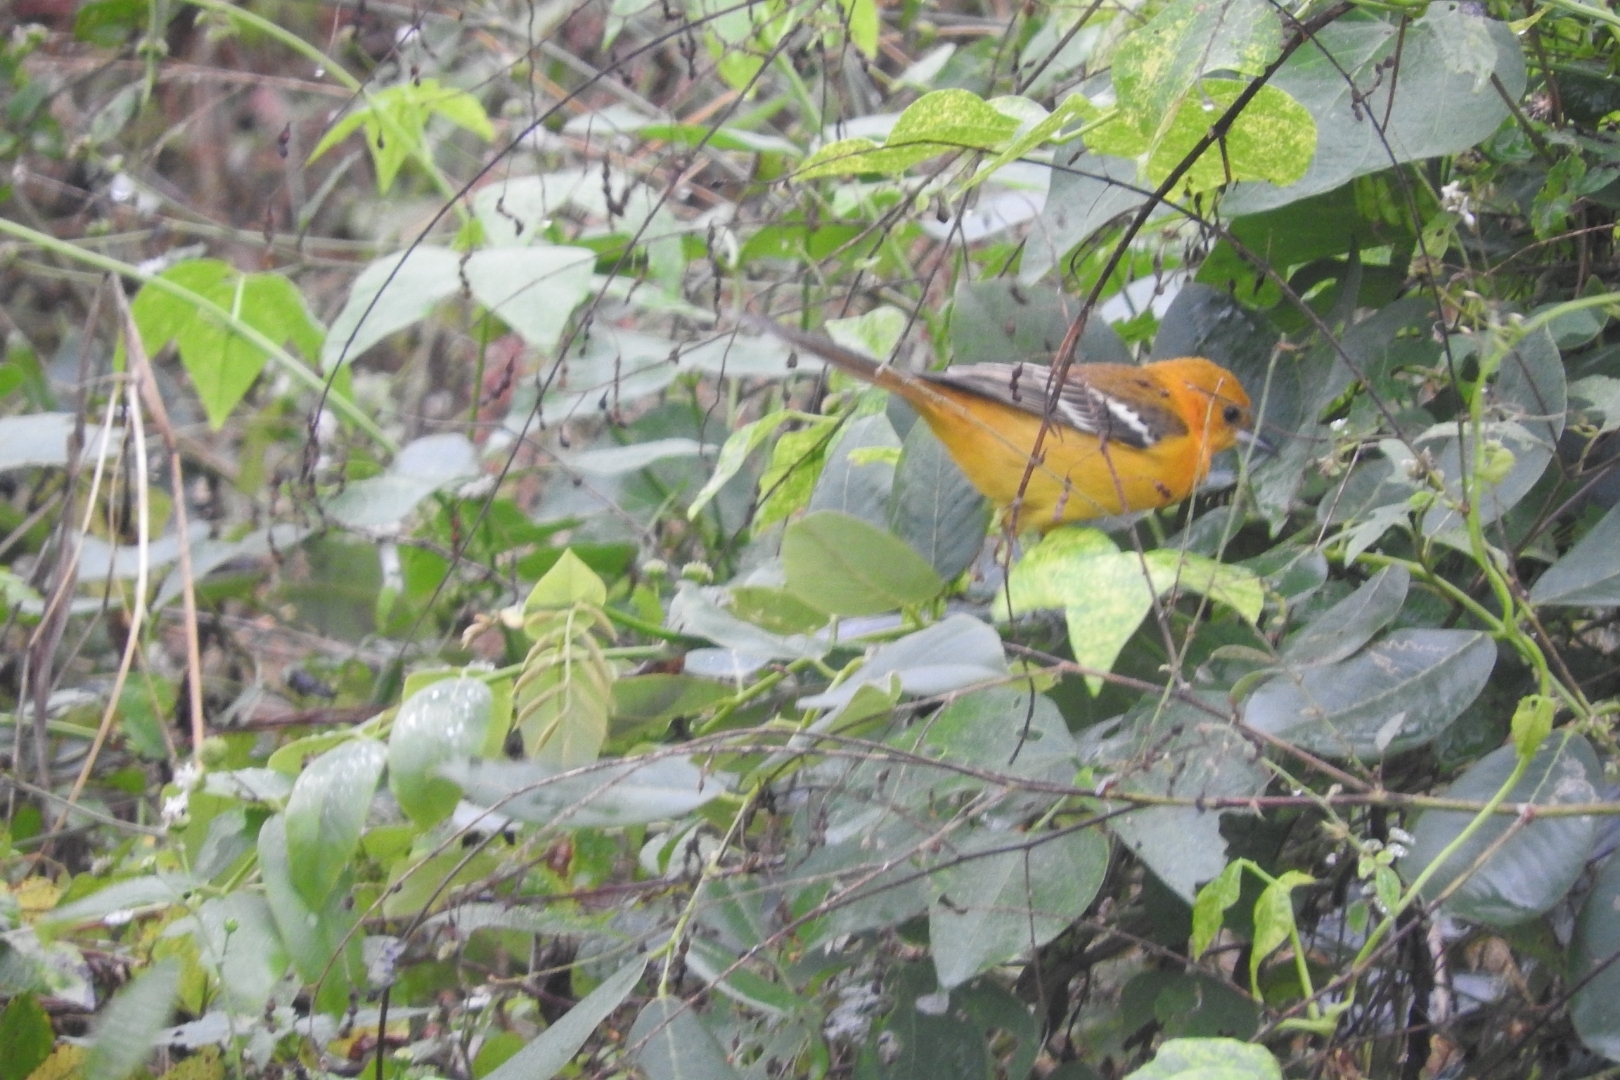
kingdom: Animalia
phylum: Chordata
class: Aves
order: Passeriformes
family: Icteridae
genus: Icterus
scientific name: Icterus cucullatus
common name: Hooded oriole
